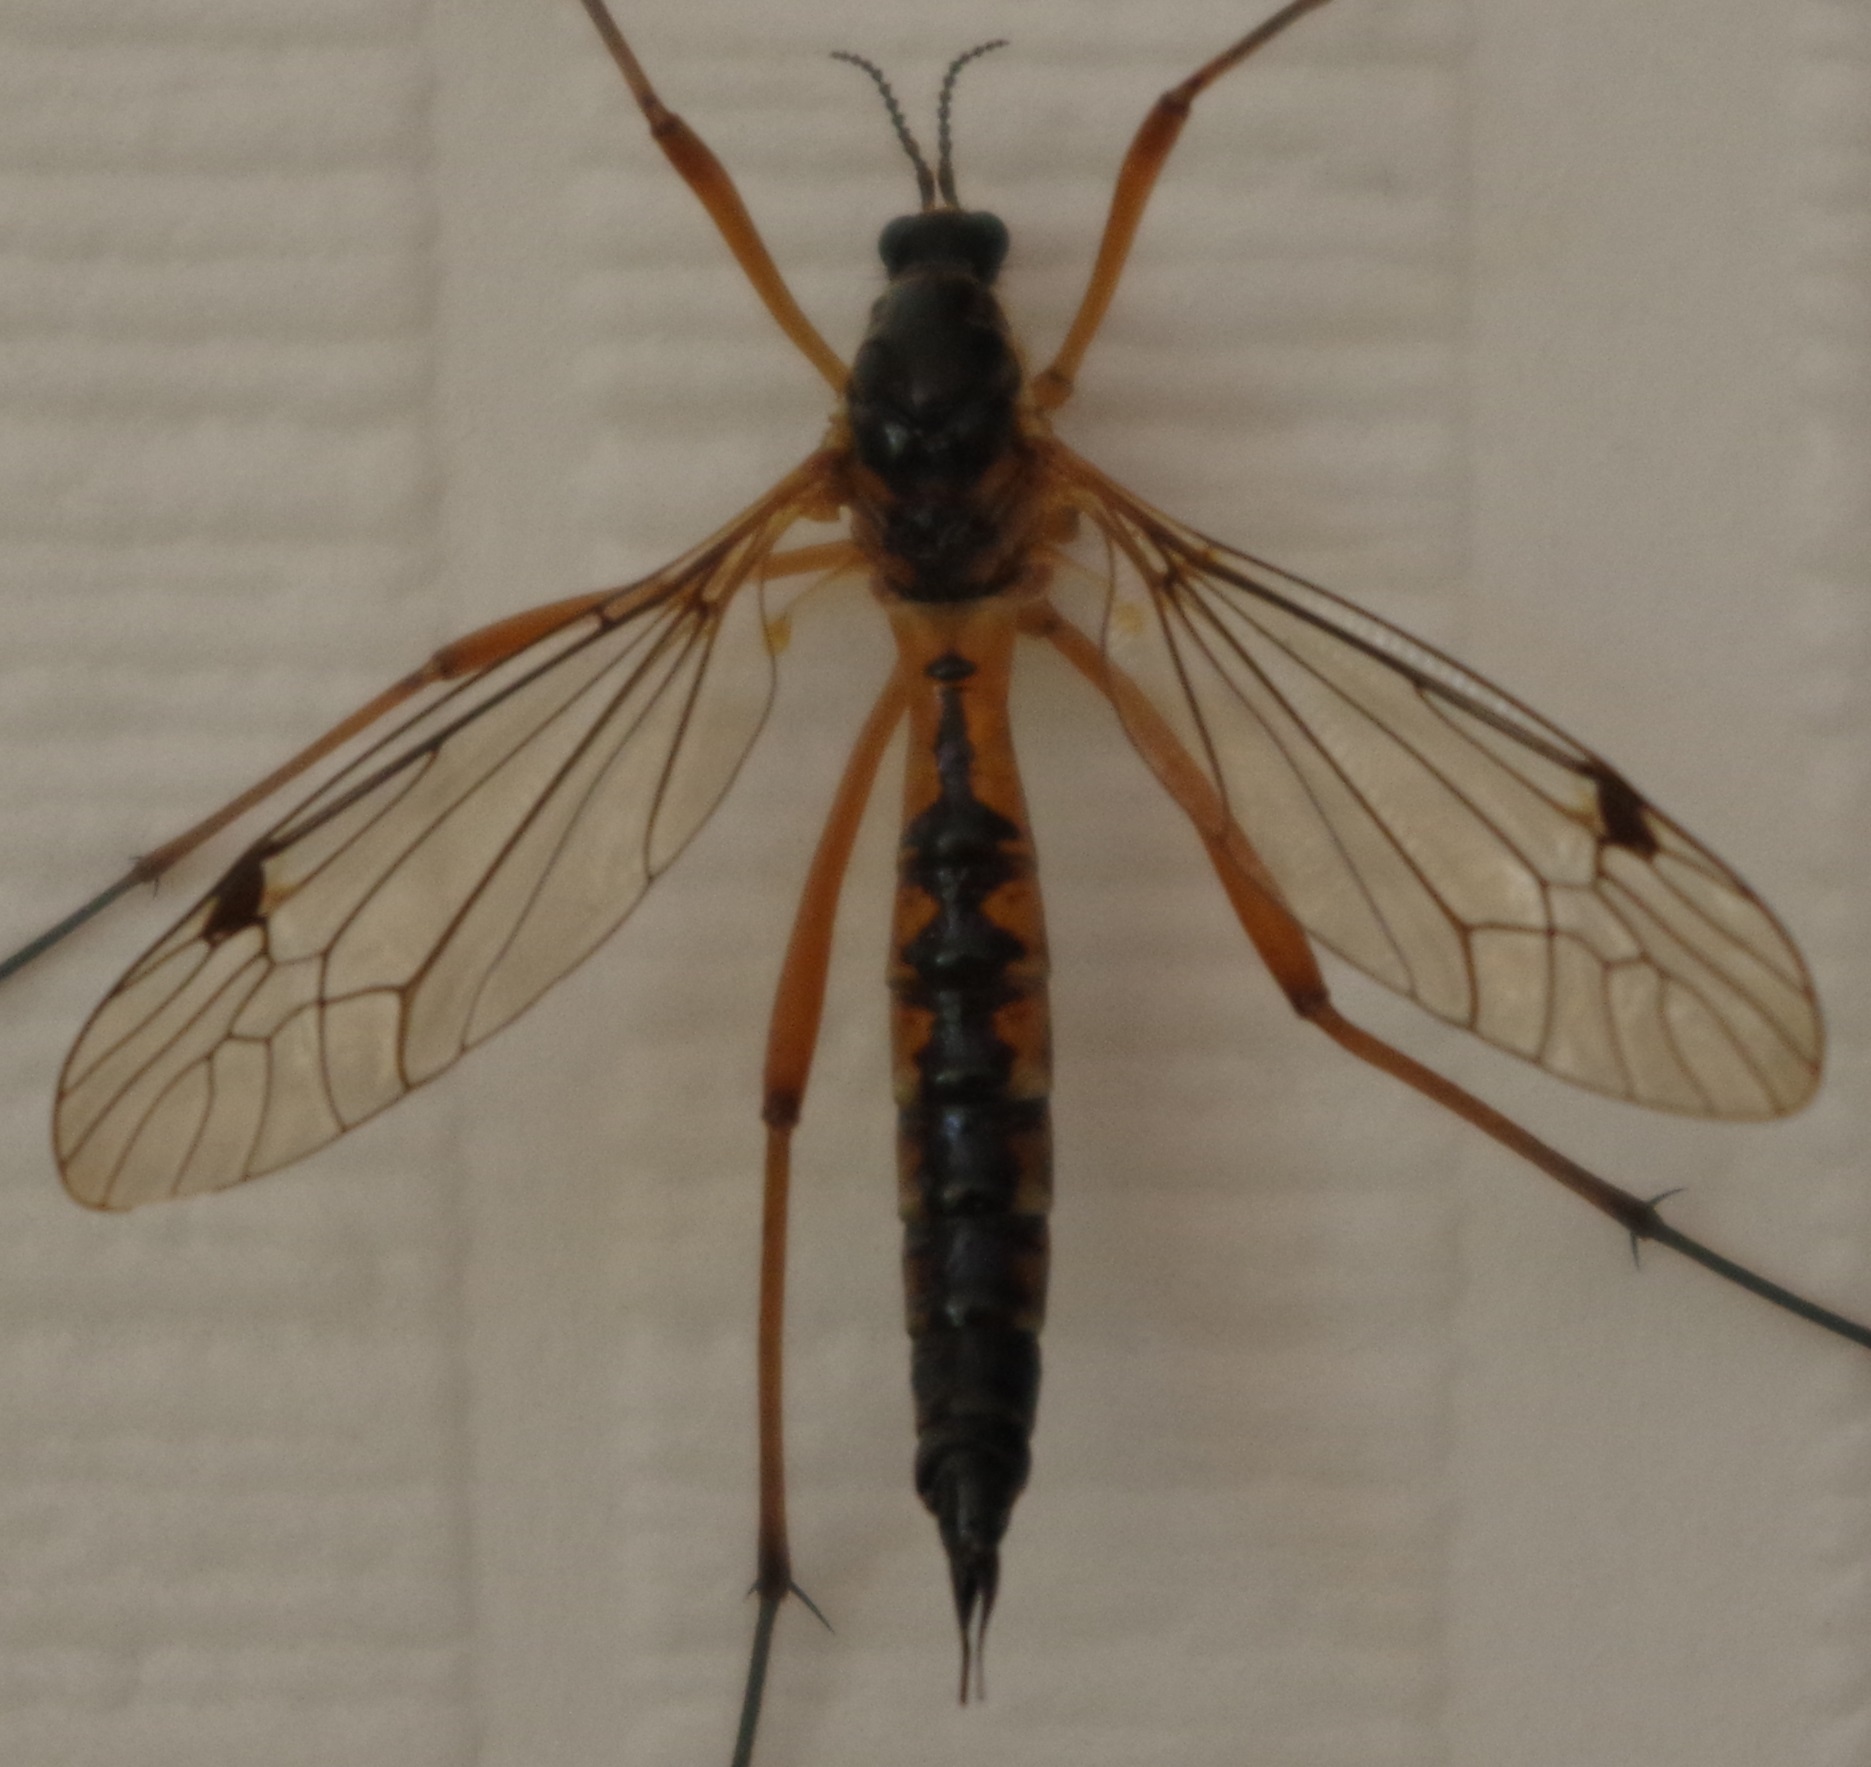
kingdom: Animalia
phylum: Arthropoda
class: Insecta
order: Diptera
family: Tipulidae
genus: Ctenophora
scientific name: Ctenophora pectinicornis
